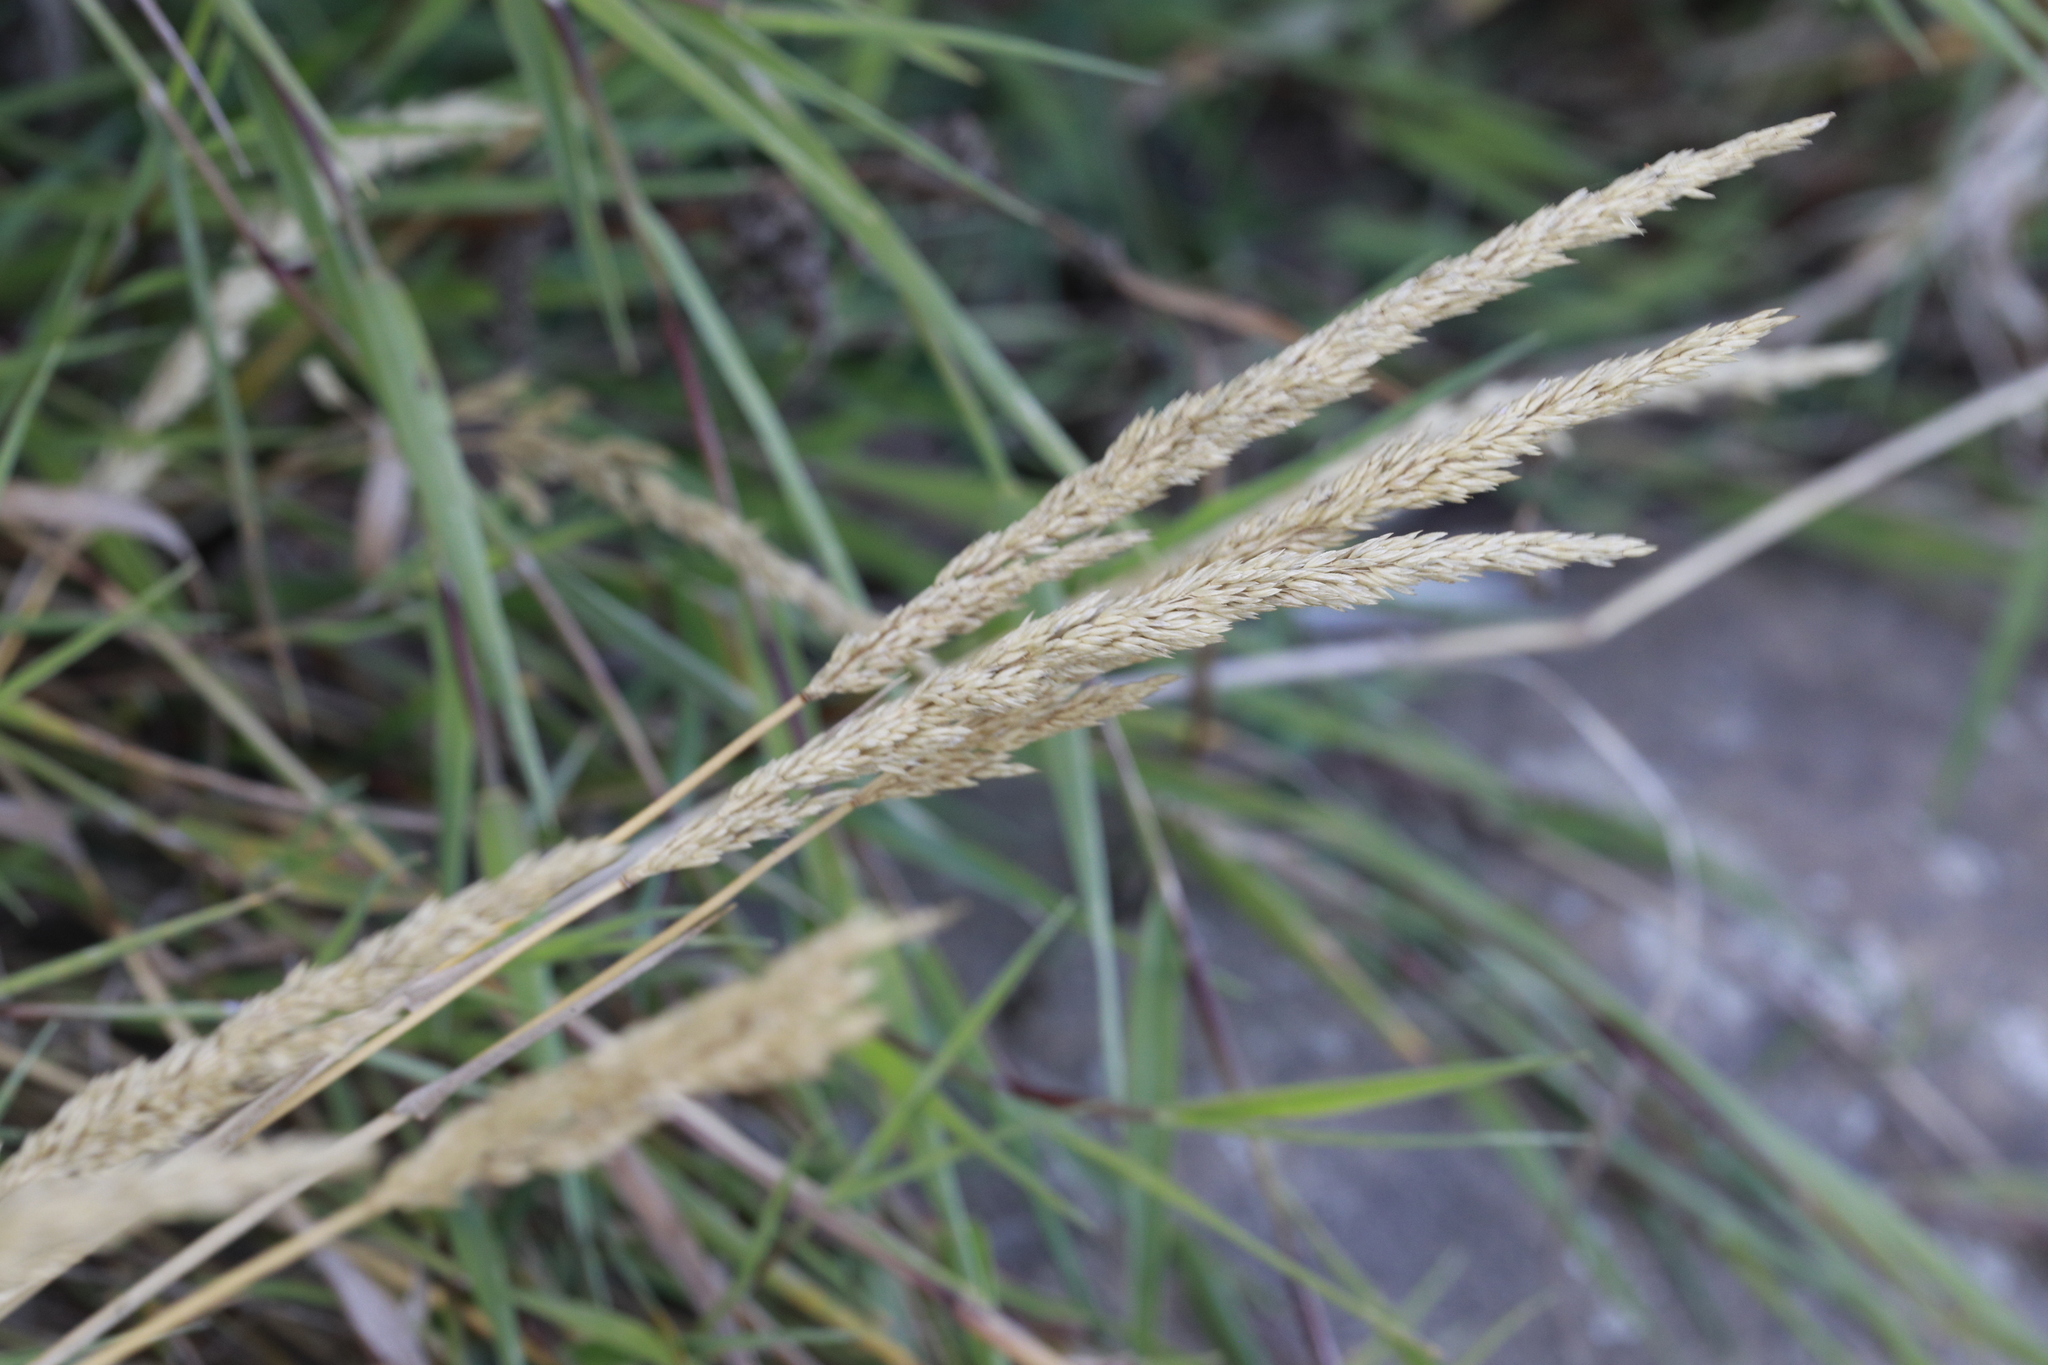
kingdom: Plantae
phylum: Tracheophyta
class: Liliopsida
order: Poales
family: Poaceae
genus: Holcus
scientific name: Holcus lanatus
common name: Yorkshire-fog
